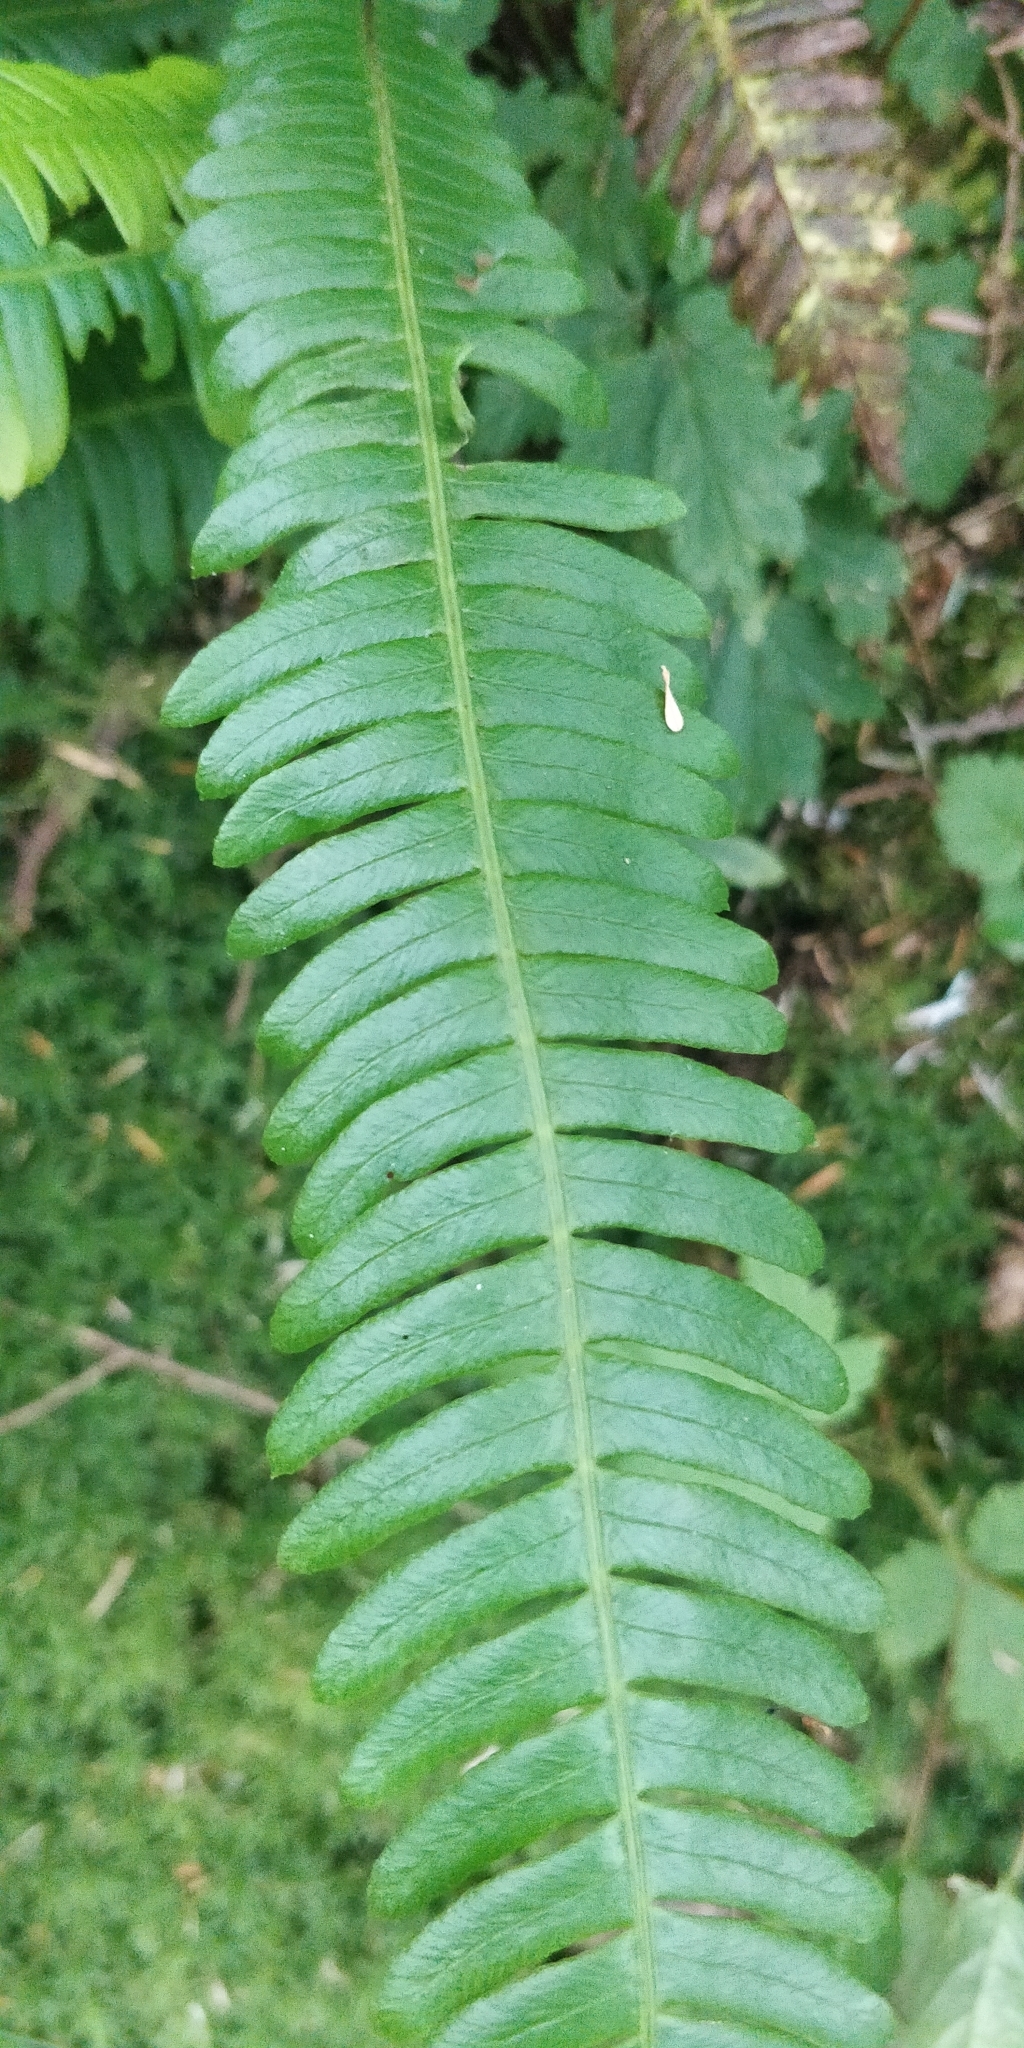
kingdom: Plantae
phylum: Tracheophyta
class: Polypodiopsida
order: Polypodiales
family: Blechnaceae
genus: Struthiopteris
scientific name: Struthiopteris spicant
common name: Deer fern
